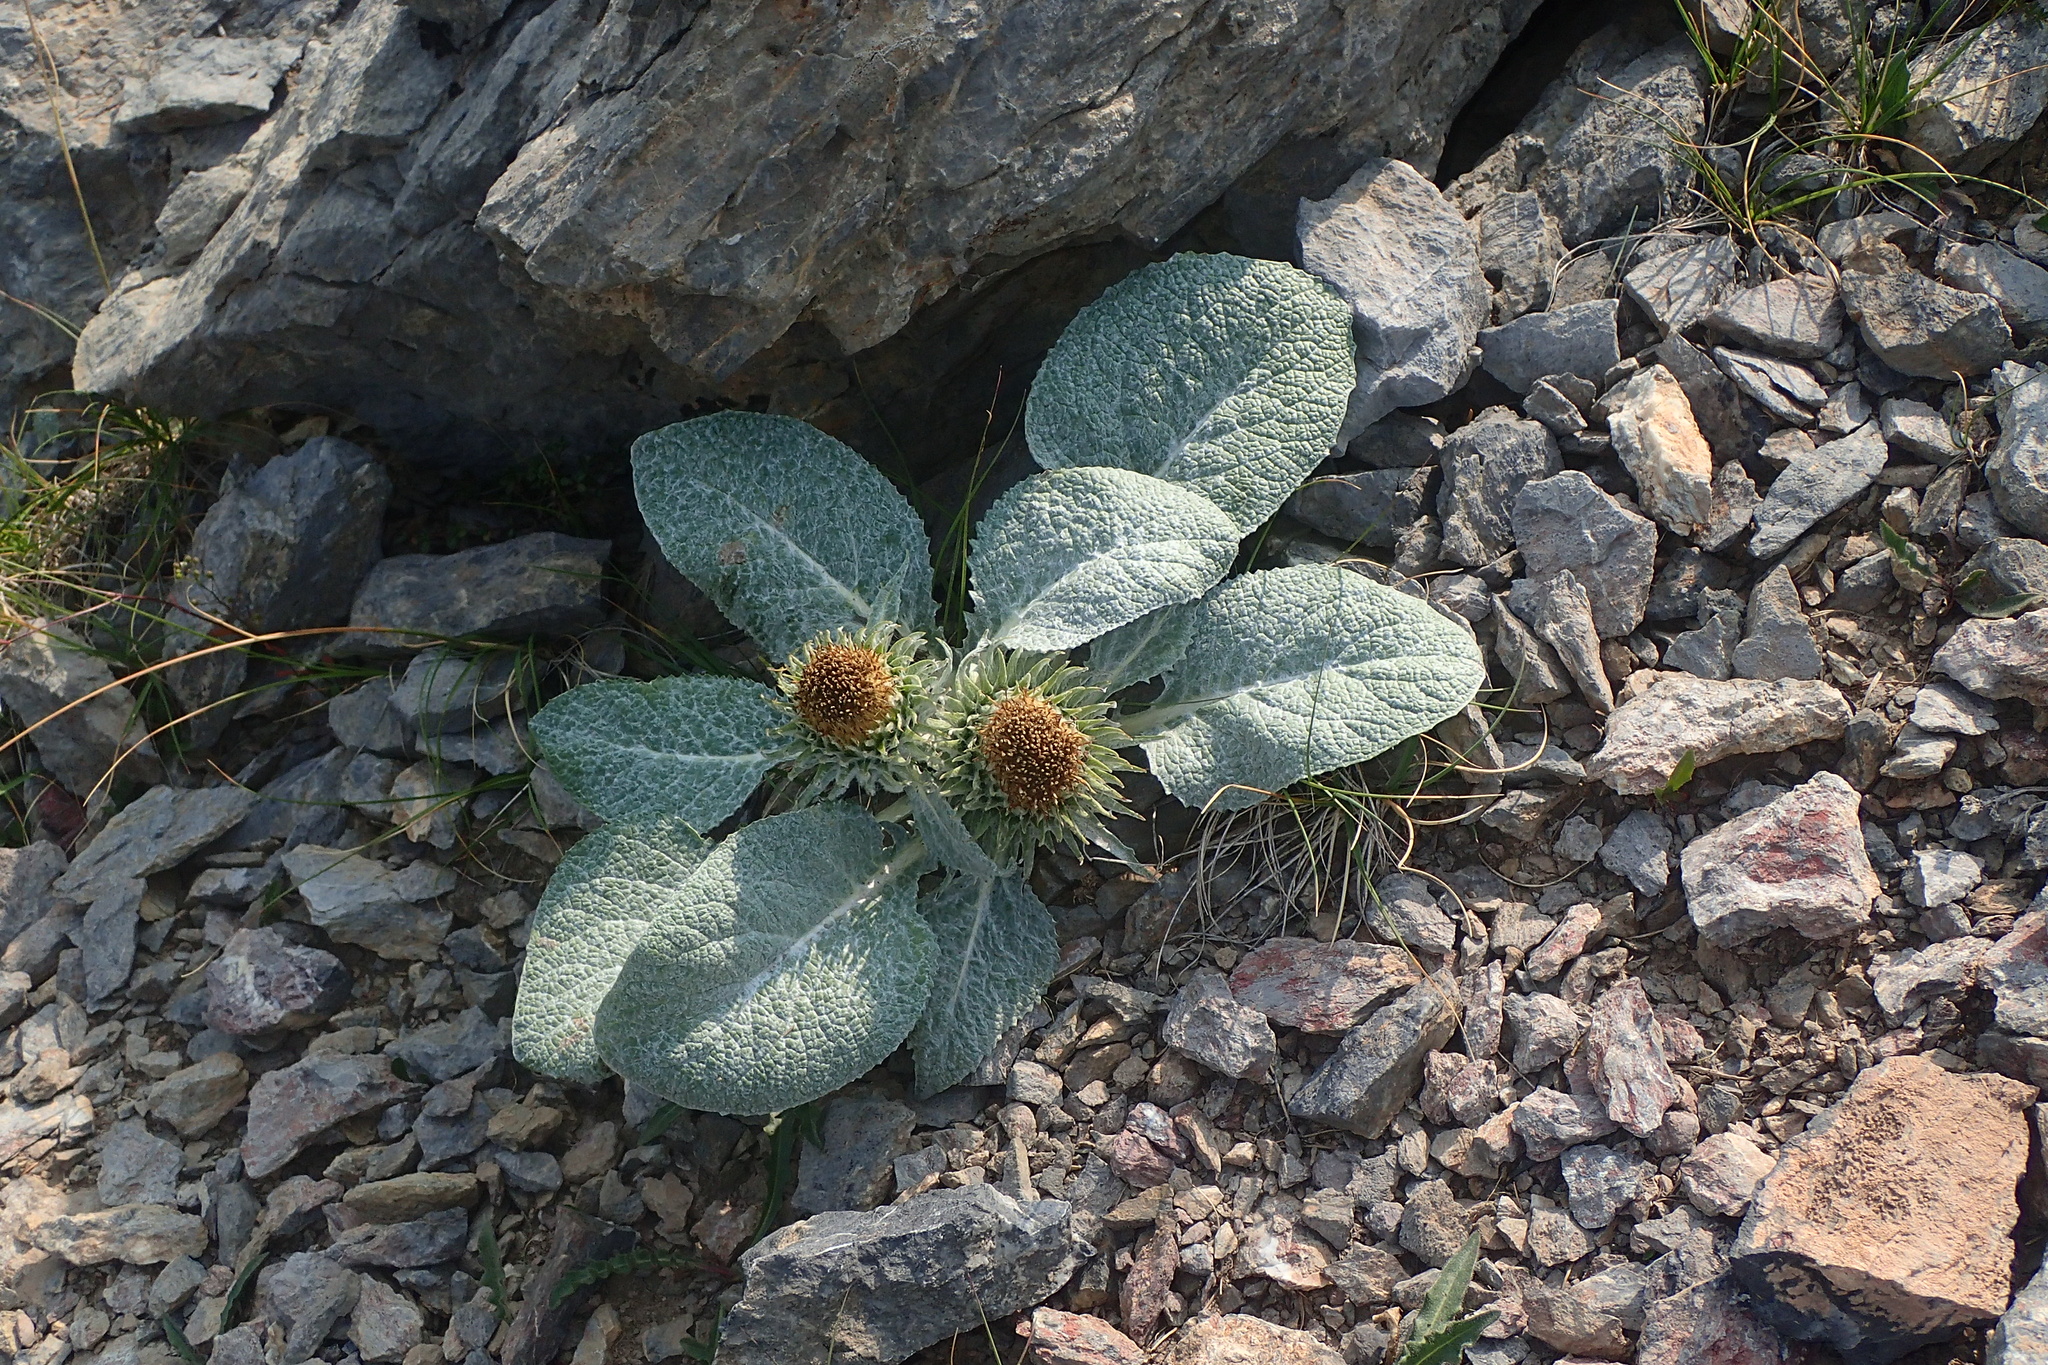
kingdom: Plantae
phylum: Tracheophyta
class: Magnoliopsida
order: Asterales
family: Asteraceae
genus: Berardia
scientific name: Berardia lanuginosa
